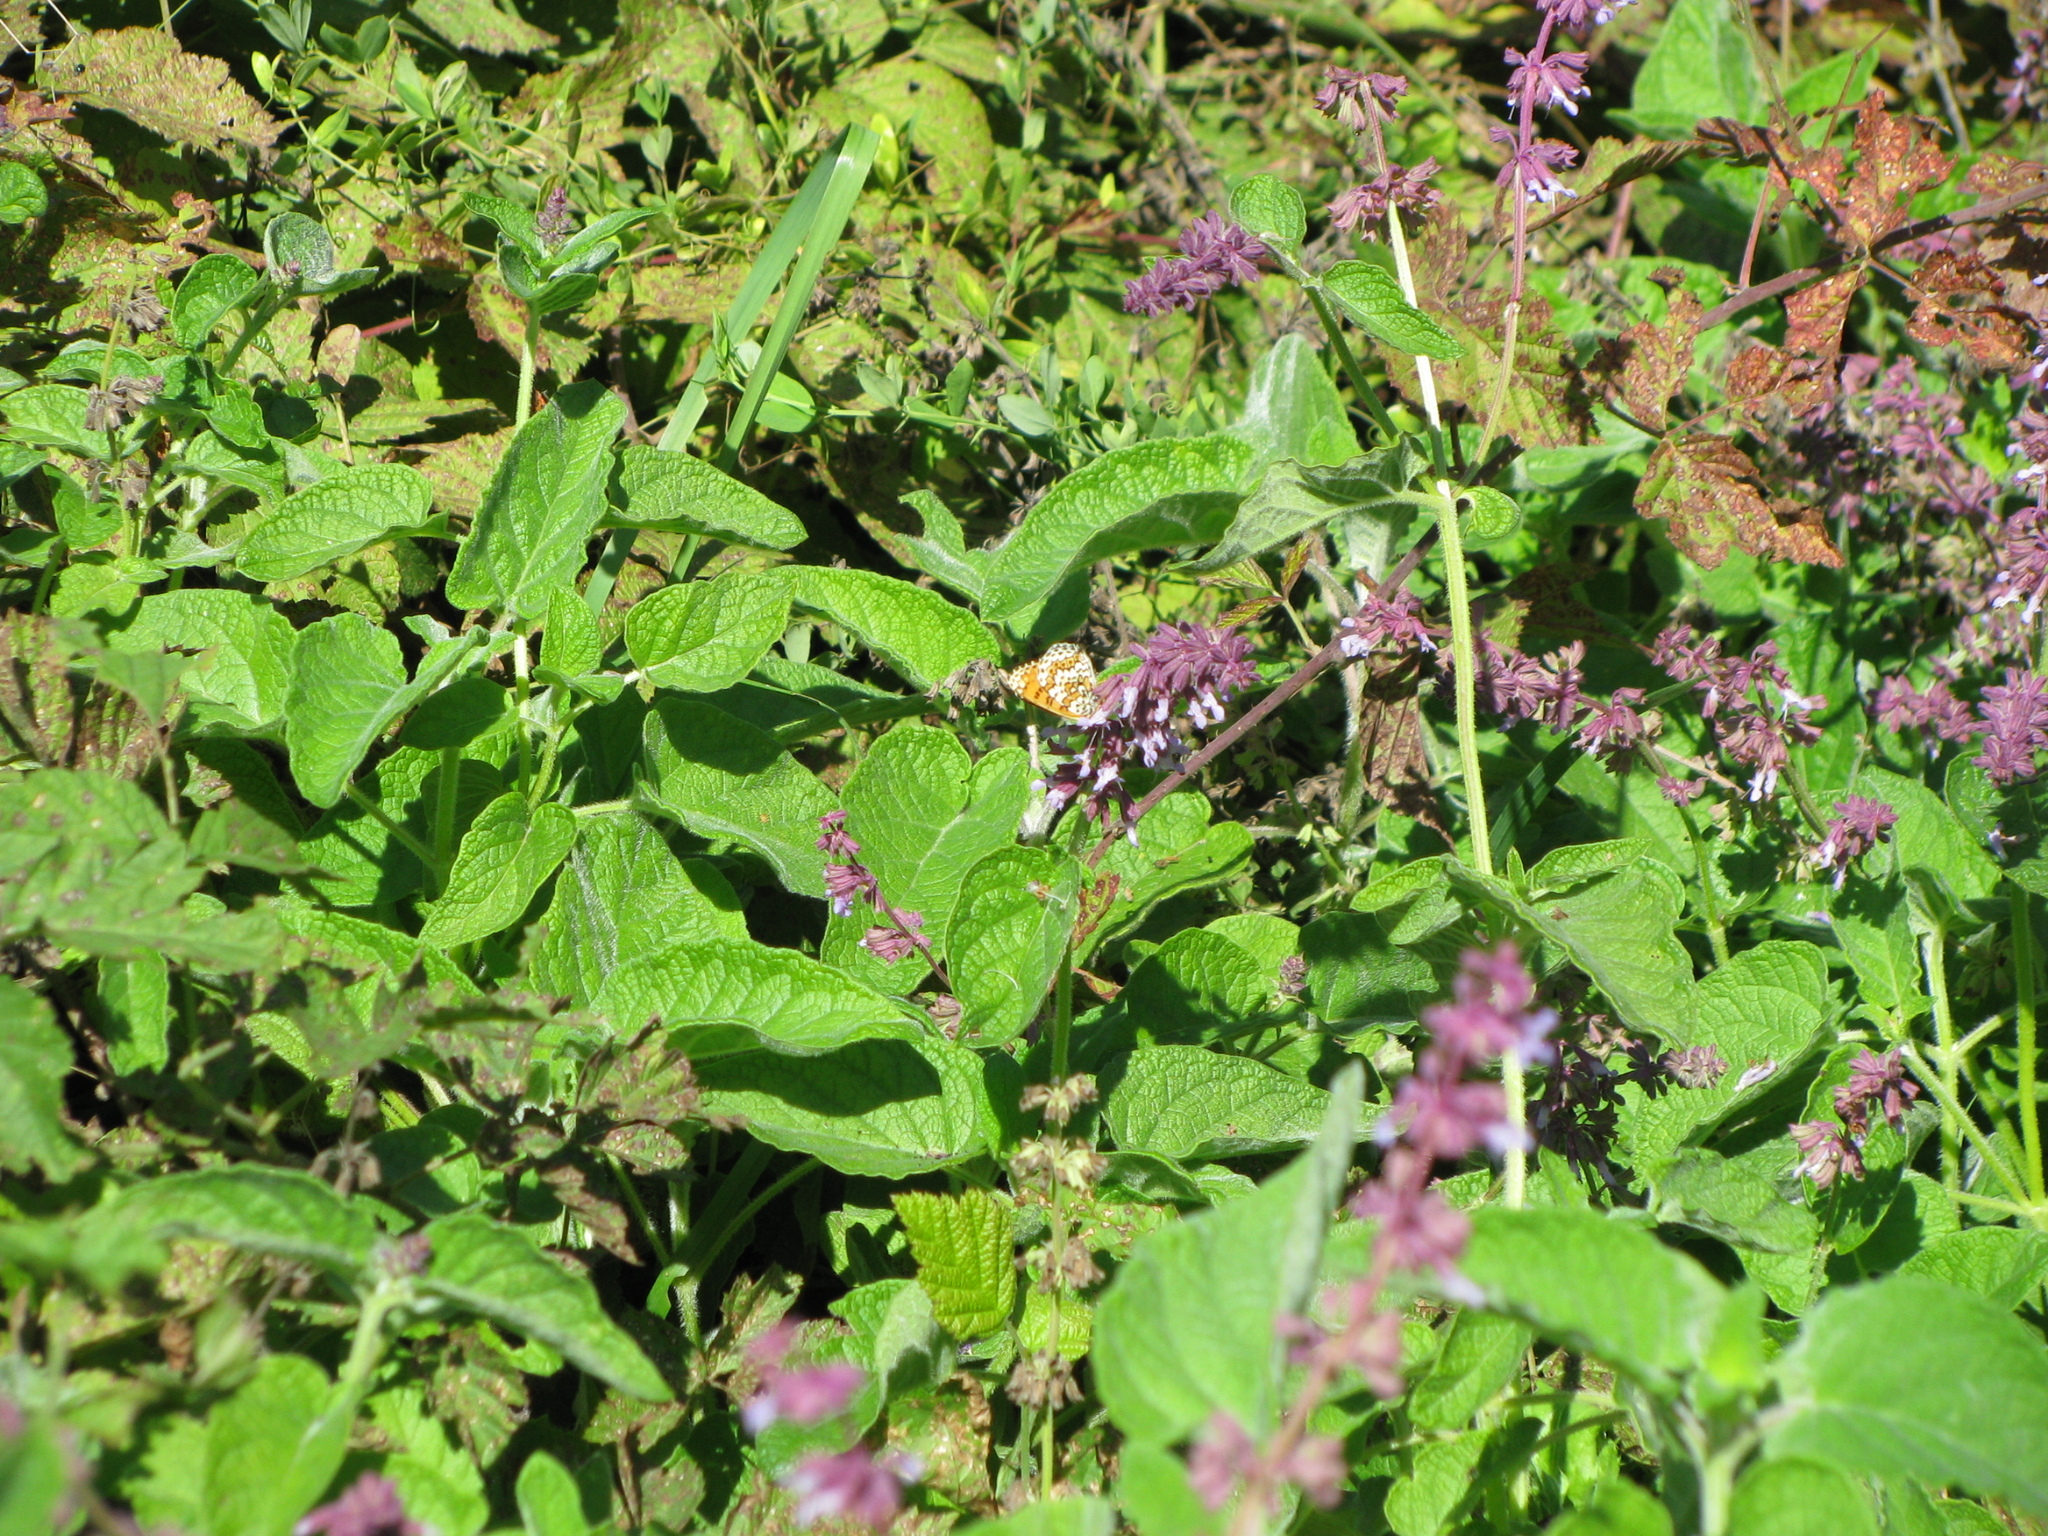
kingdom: Animalia
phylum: Arthropoda
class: Insecta
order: Lepidoptera
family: Nymphalidae
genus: Melitaea
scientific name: Melitaea cinxia
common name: Glanville fritillary
